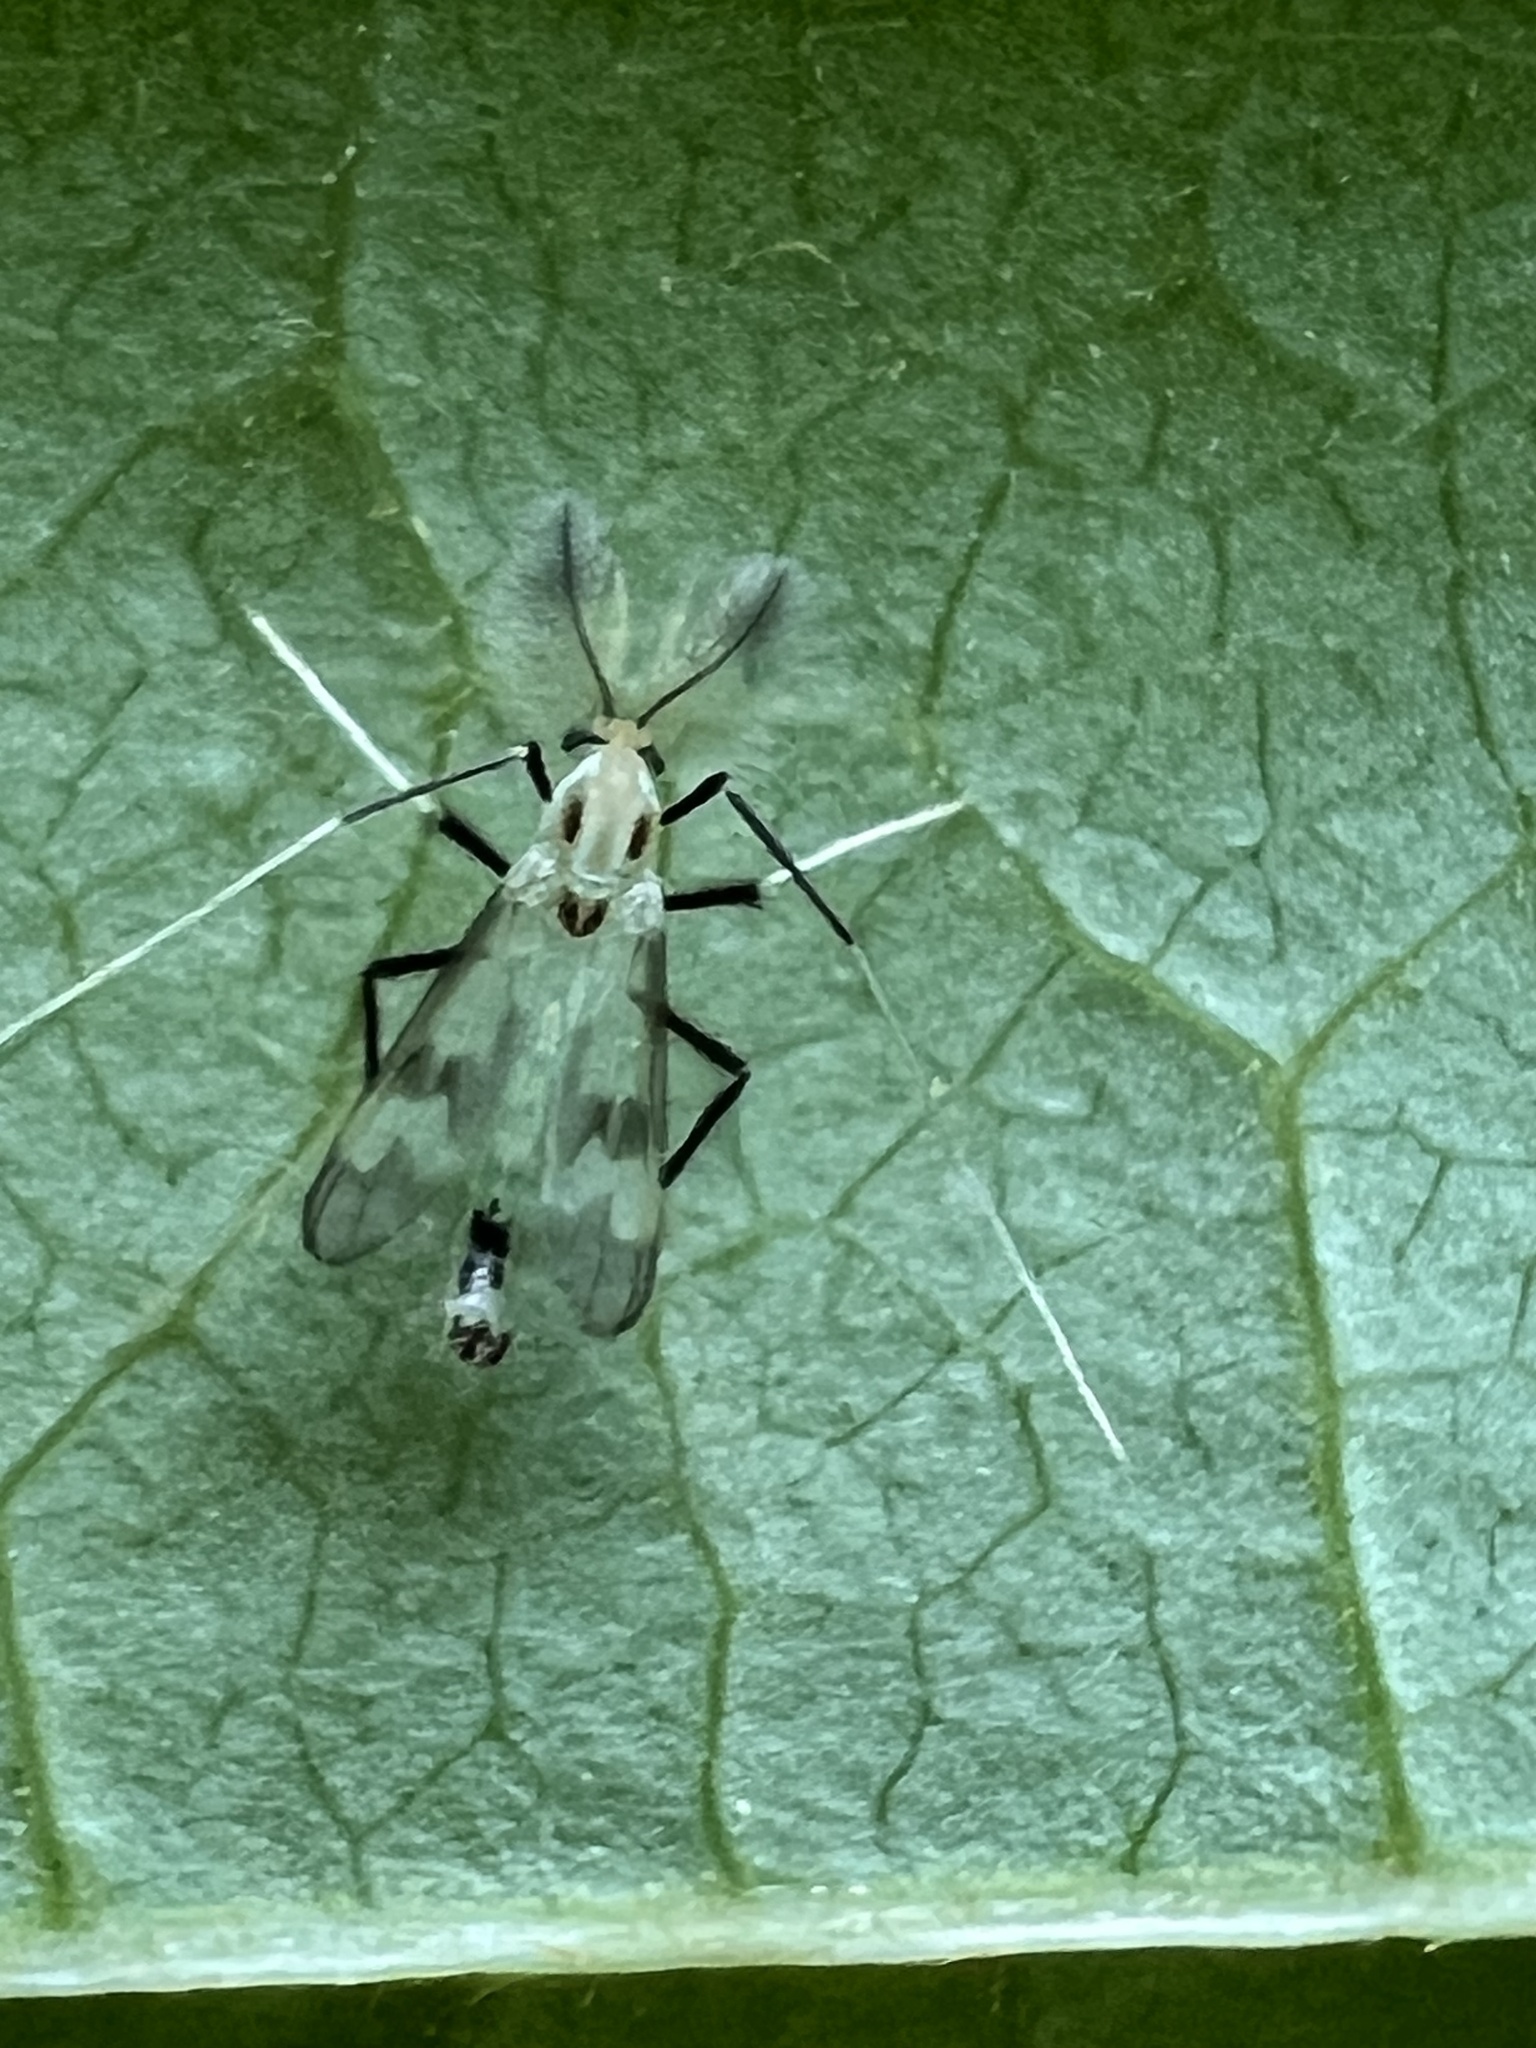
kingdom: Animalia
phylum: Arthropoda
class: Insecta
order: Diptera
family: Chironomidae
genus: Stenochironomus
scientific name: Stenochironomus hilaris
